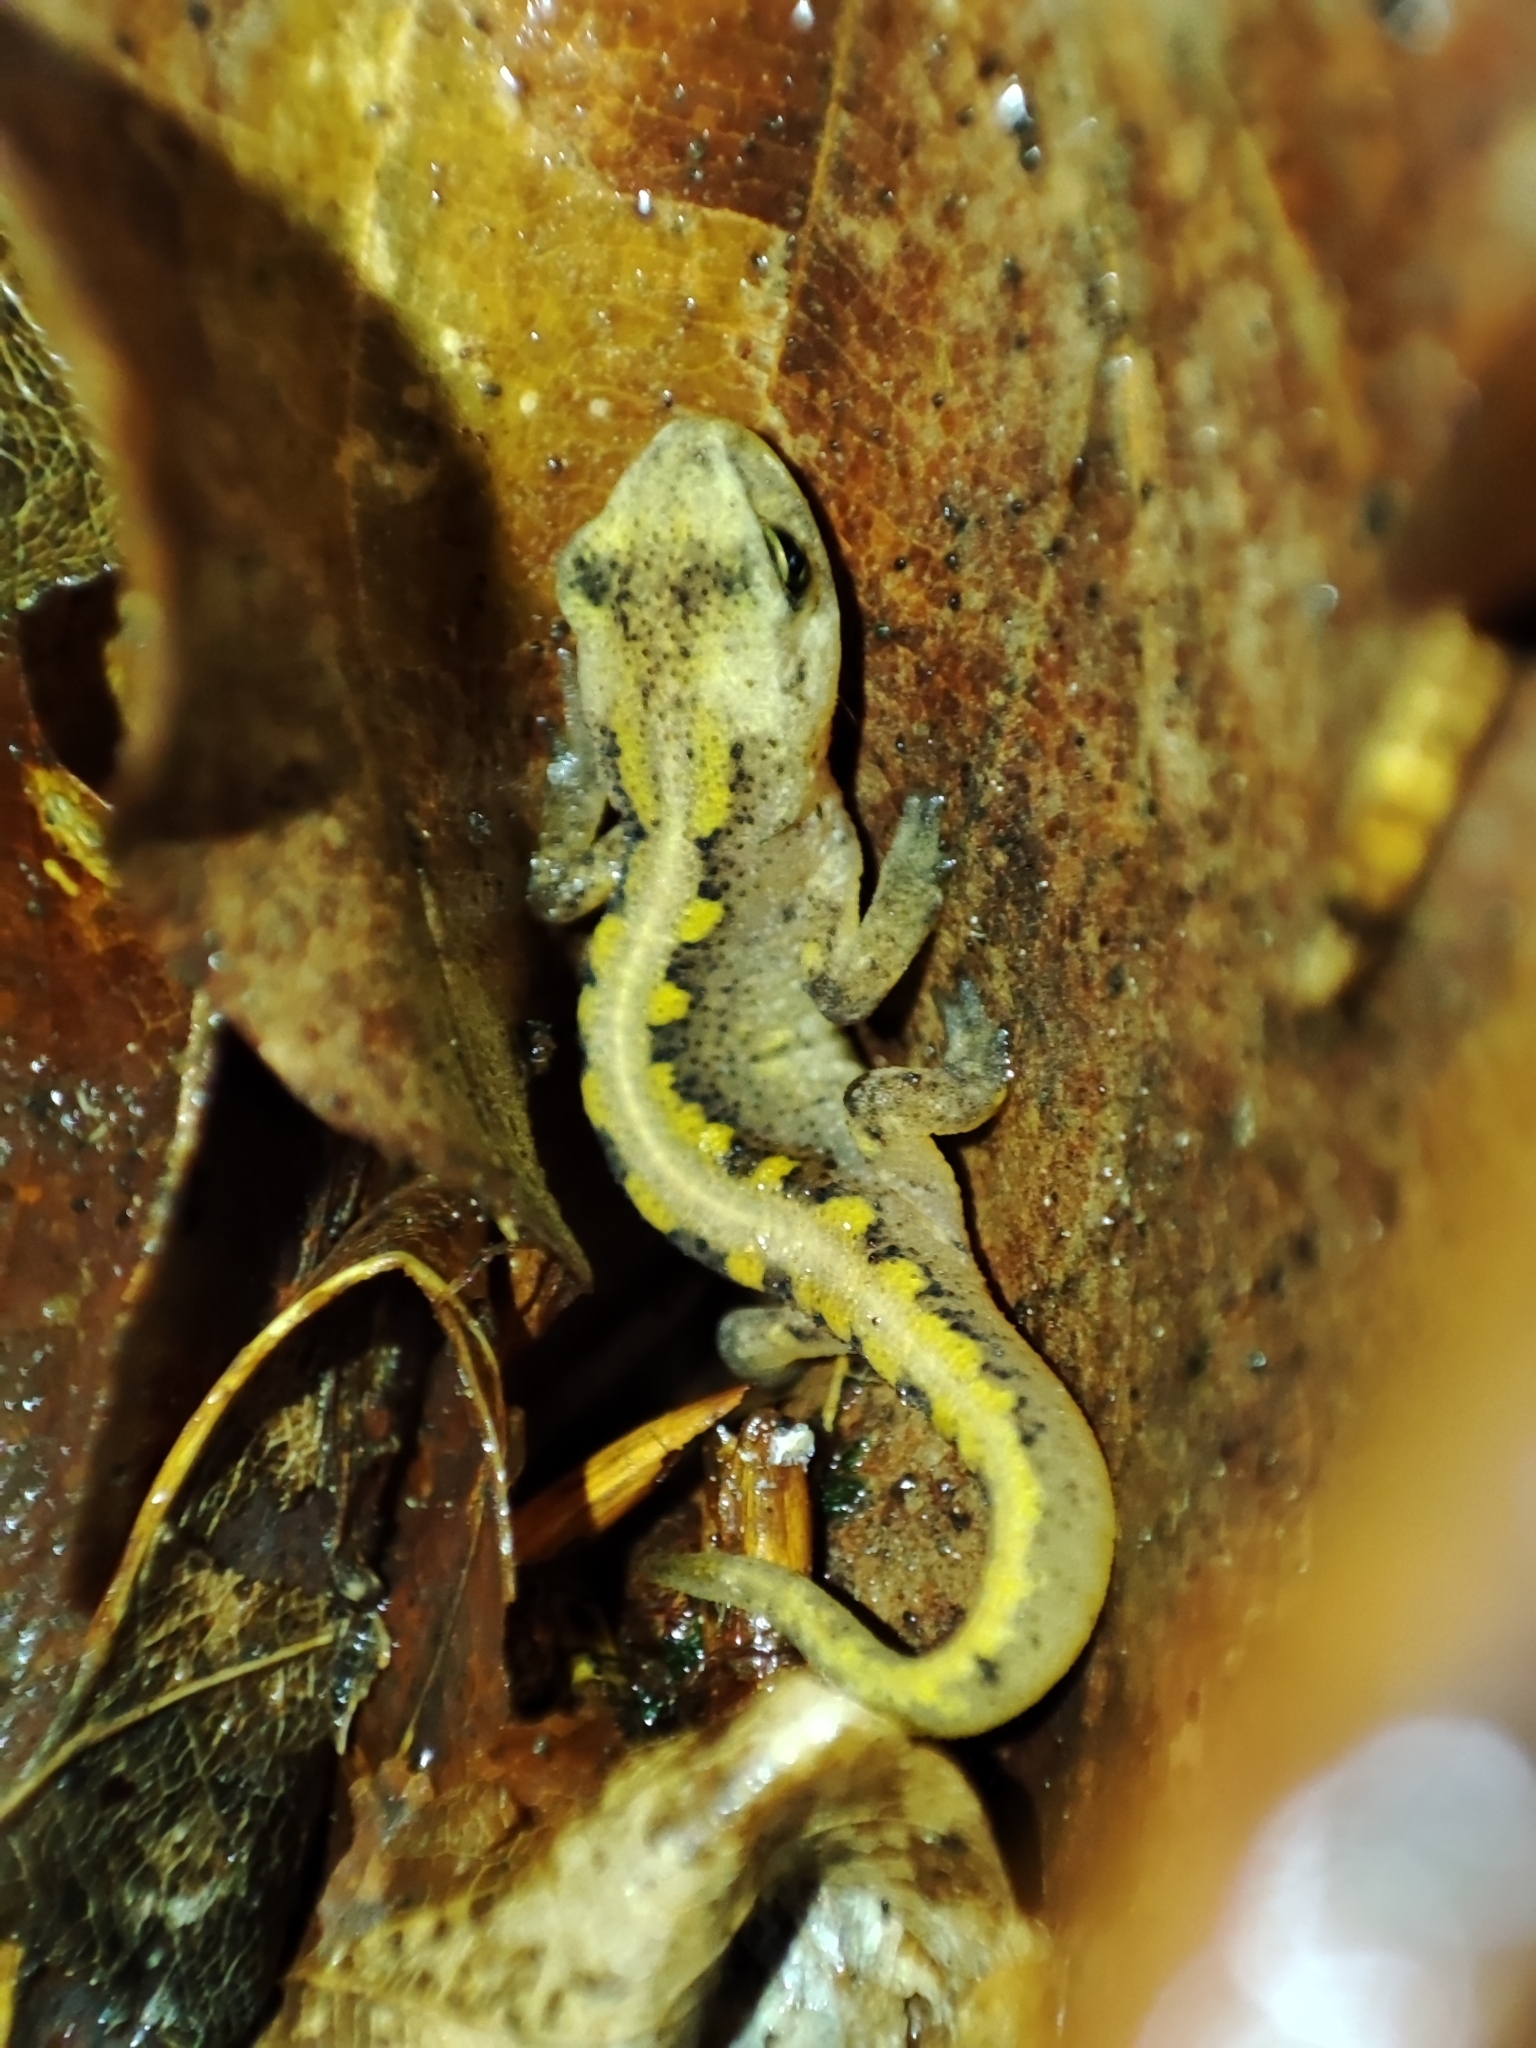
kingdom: Animalia
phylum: Chordata
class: Amphibia
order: Caudata
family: Salamandridae
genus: Lissotriton
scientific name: Lissotriton montandoni
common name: Carpathian newt
